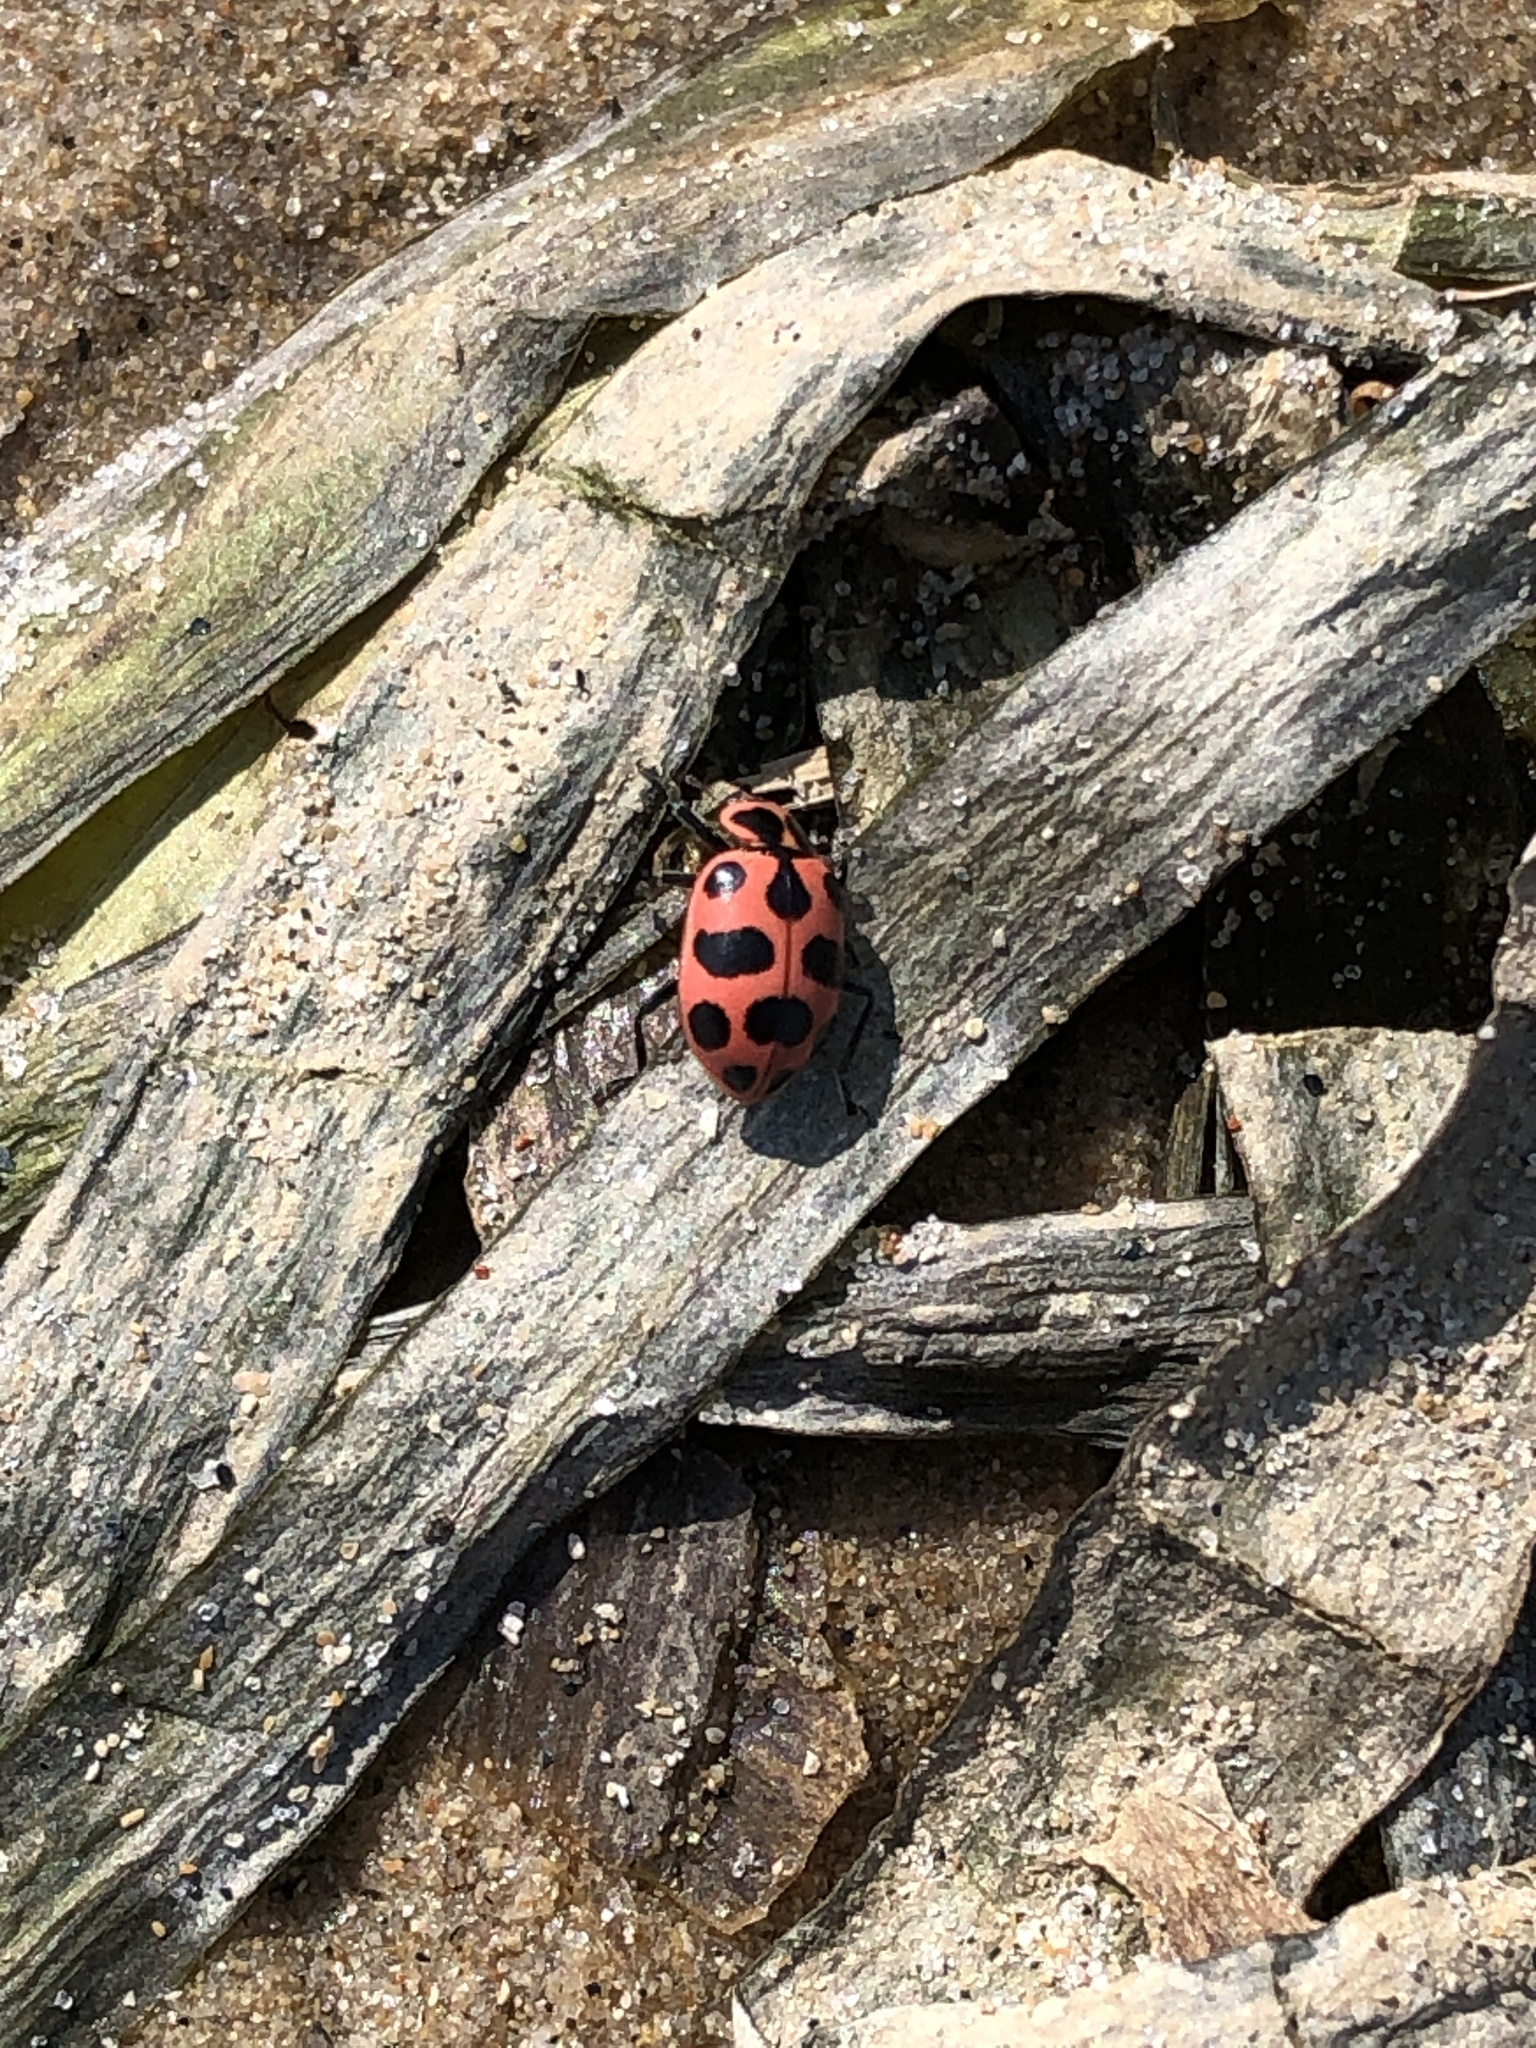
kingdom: Animalia
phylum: Arthropoda
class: Insecta
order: Coleoptera
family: Coccinellidae
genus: Coleomegilla
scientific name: Coleomegilla maculata
